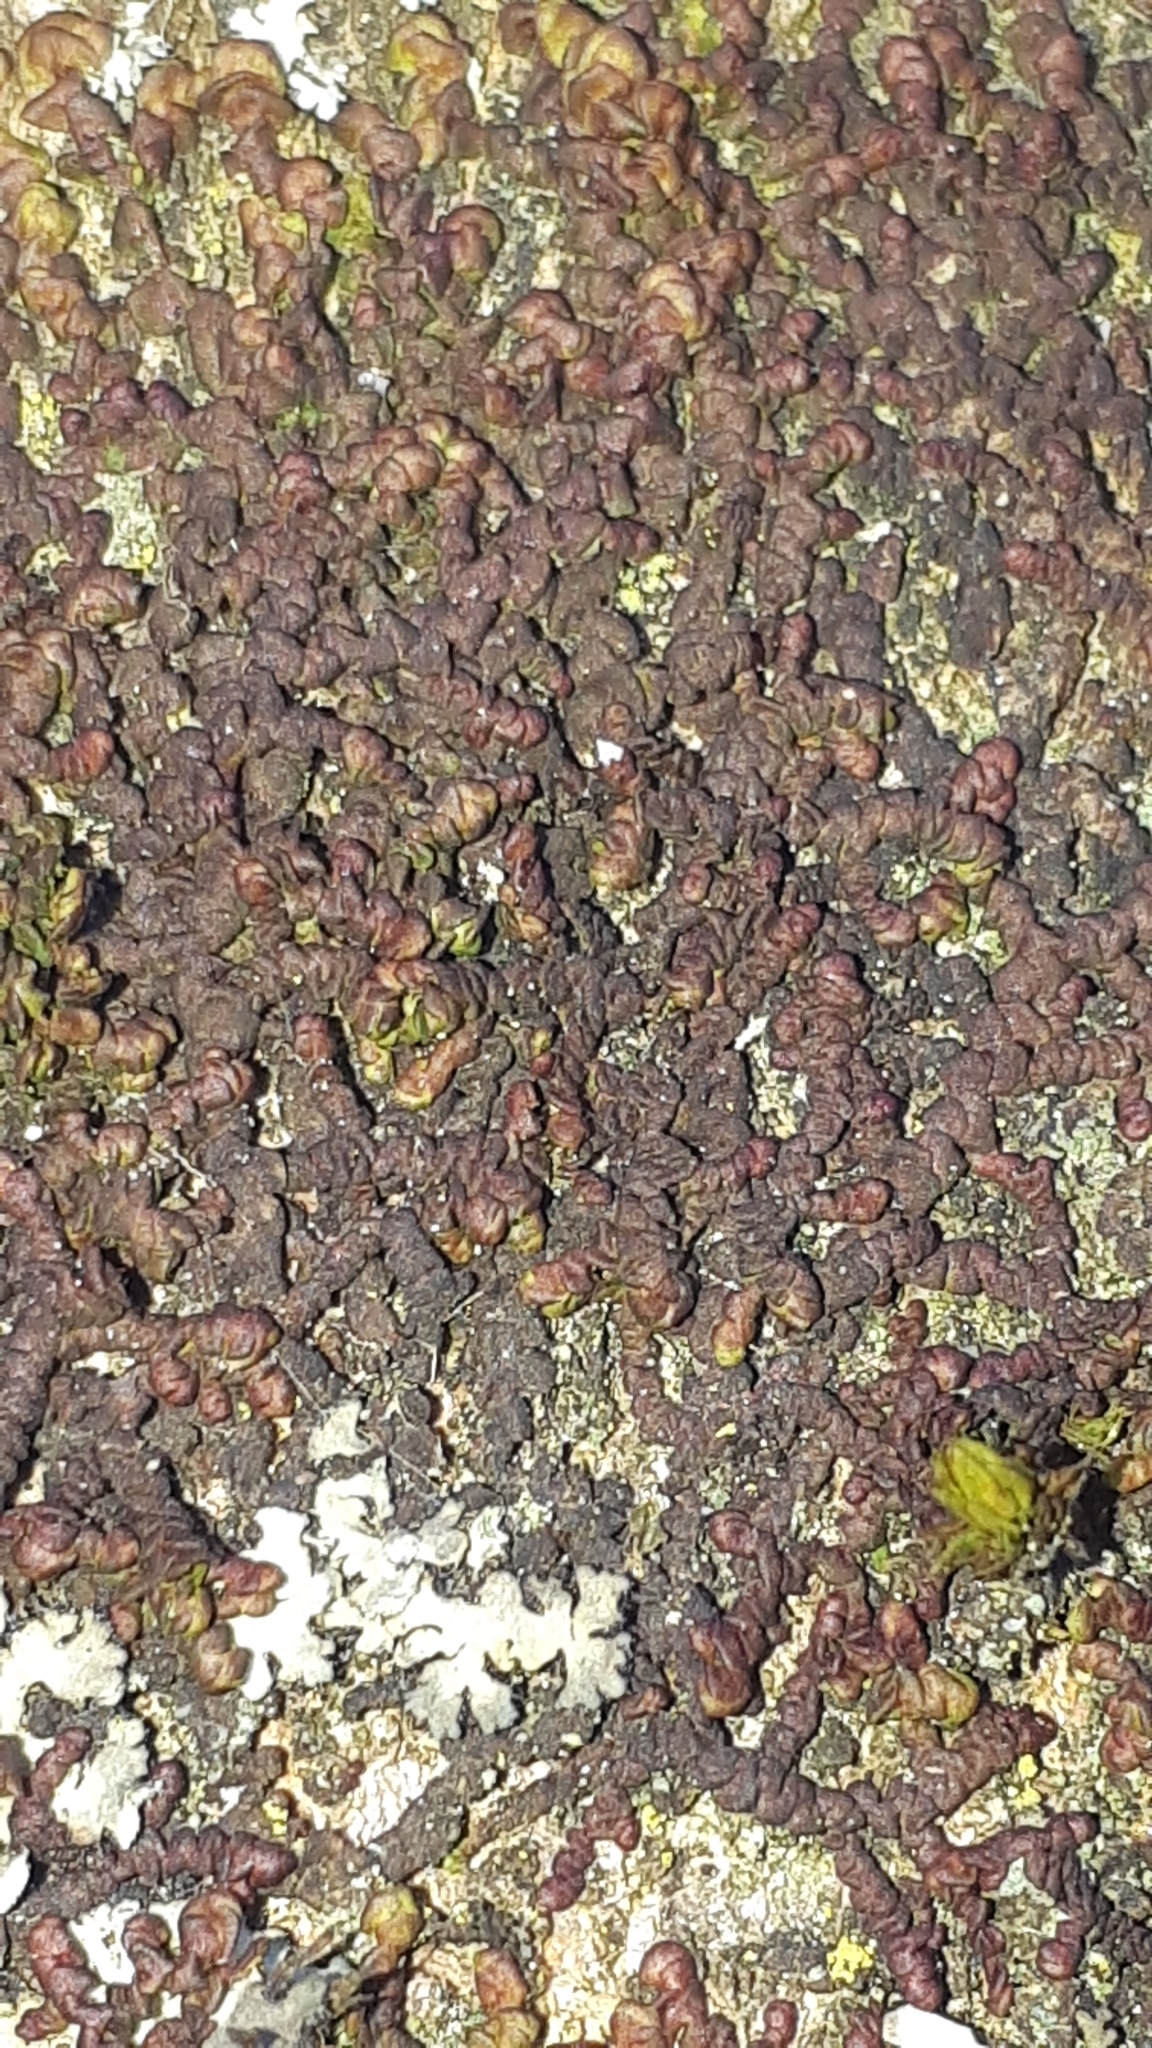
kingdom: Plantae
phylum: Marchantiophyta
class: Jungermanniopsida
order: Porellales
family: Frullaniaceae
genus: Frullania
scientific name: Frullania dilatata
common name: Dilated scalewort
